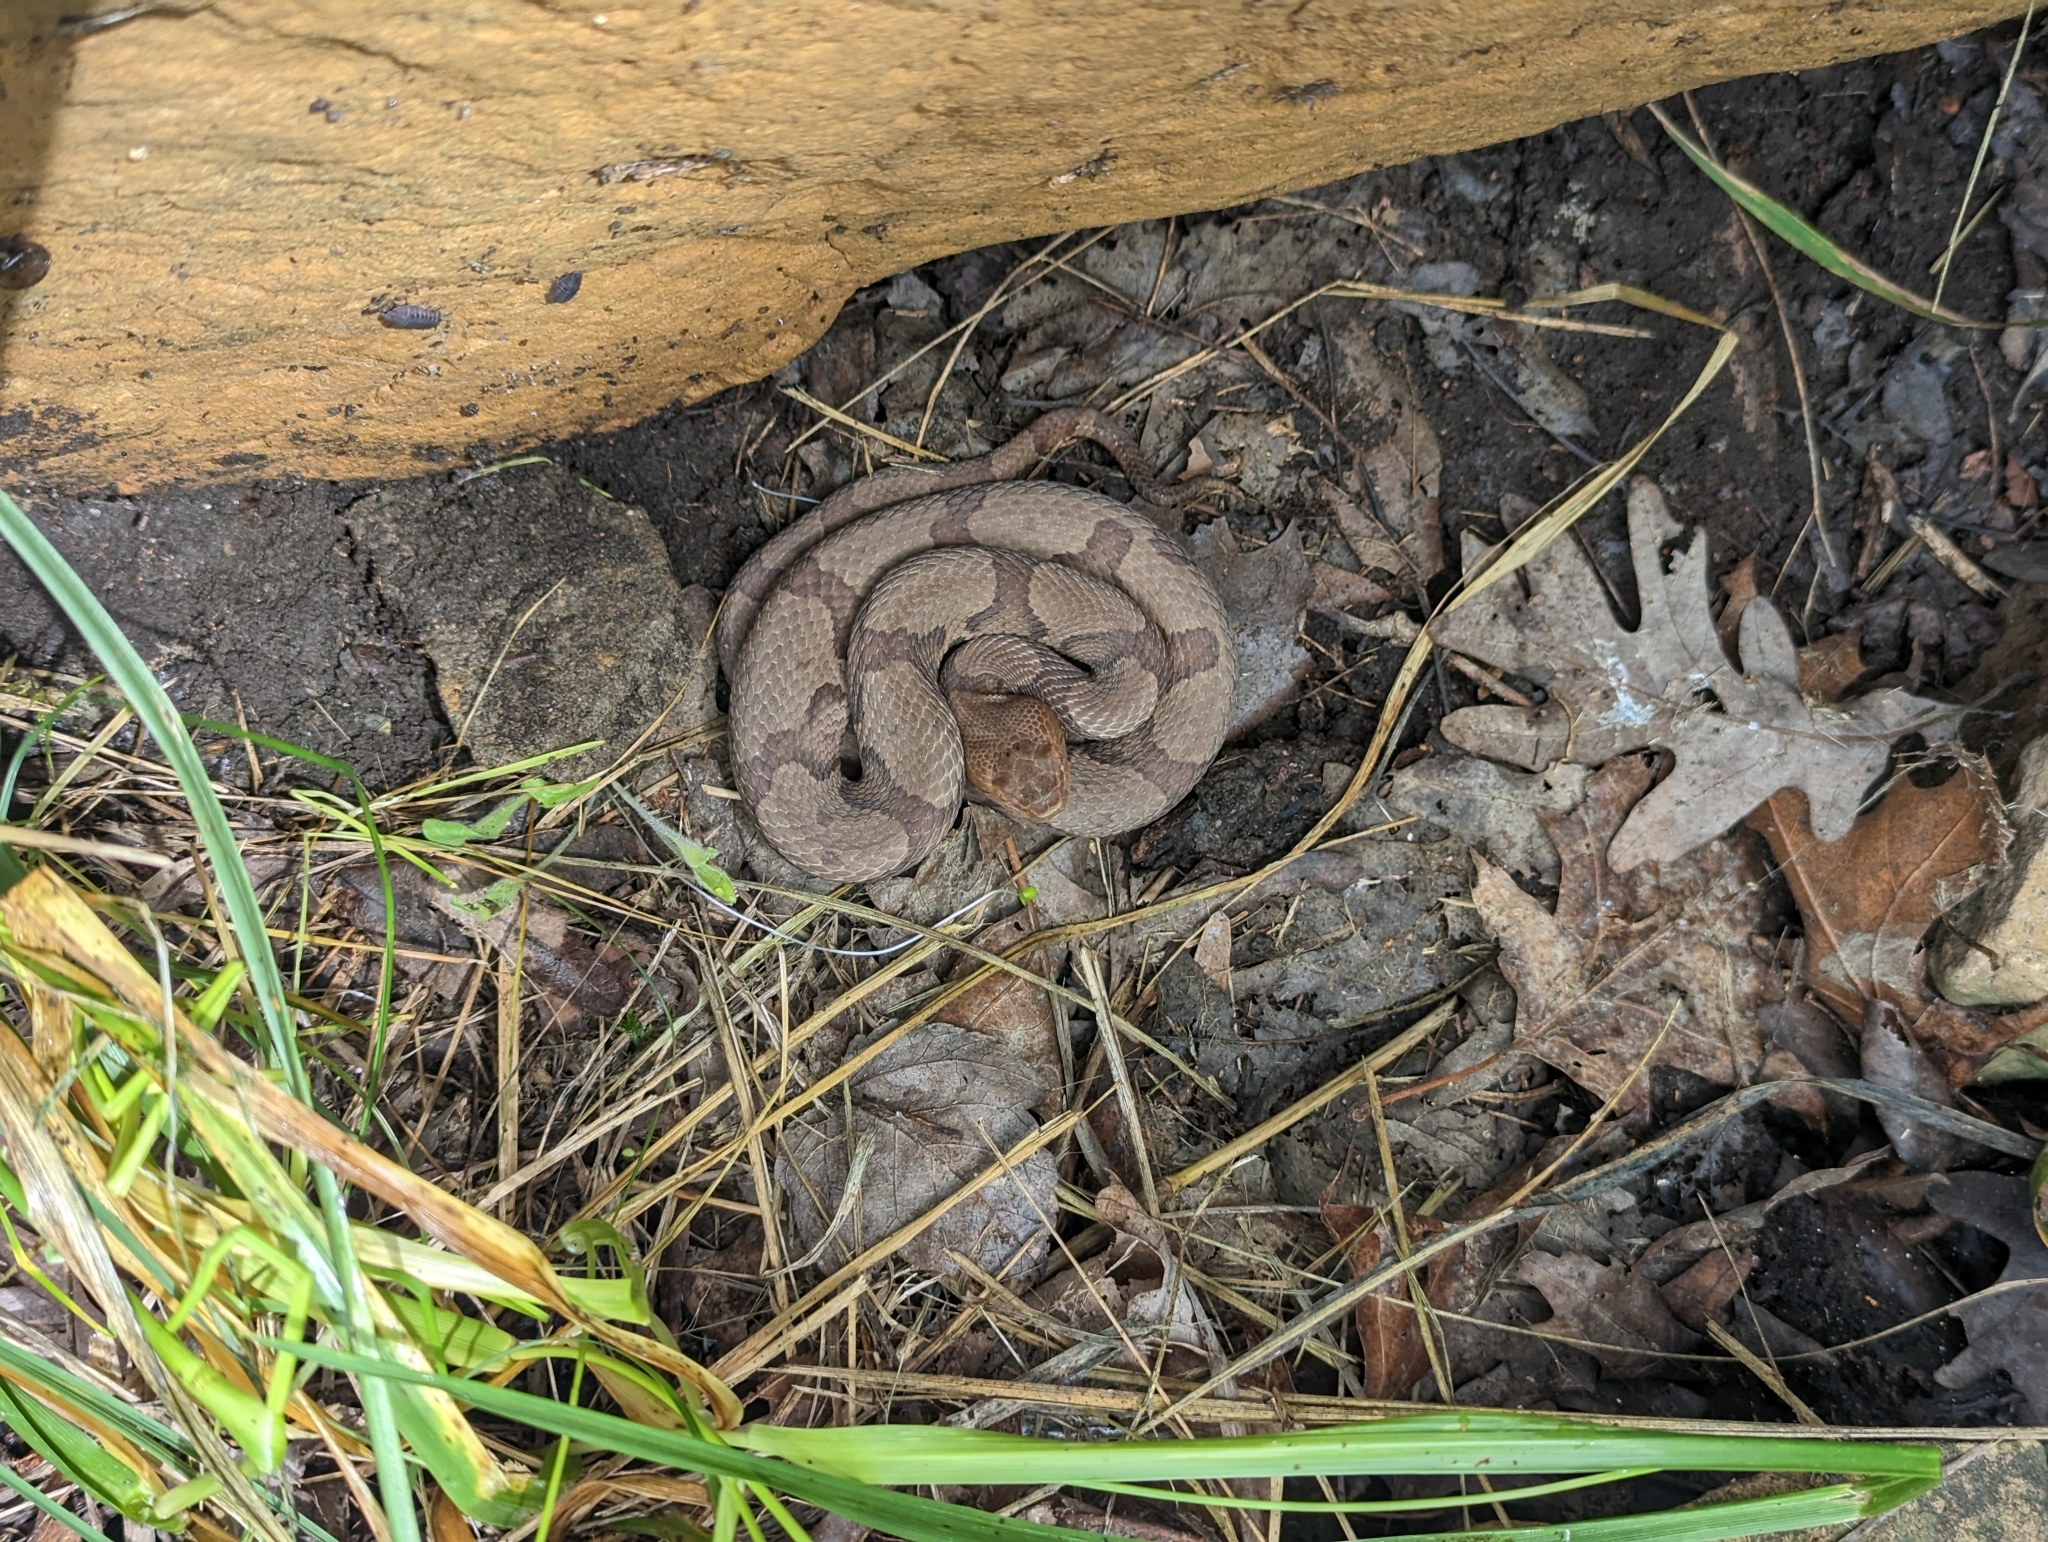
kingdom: Animalia
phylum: Chordata
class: Squamata
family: Viperidae
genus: Agkistrodon
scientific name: Agkistrodon contortrix
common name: Northern copperhead
